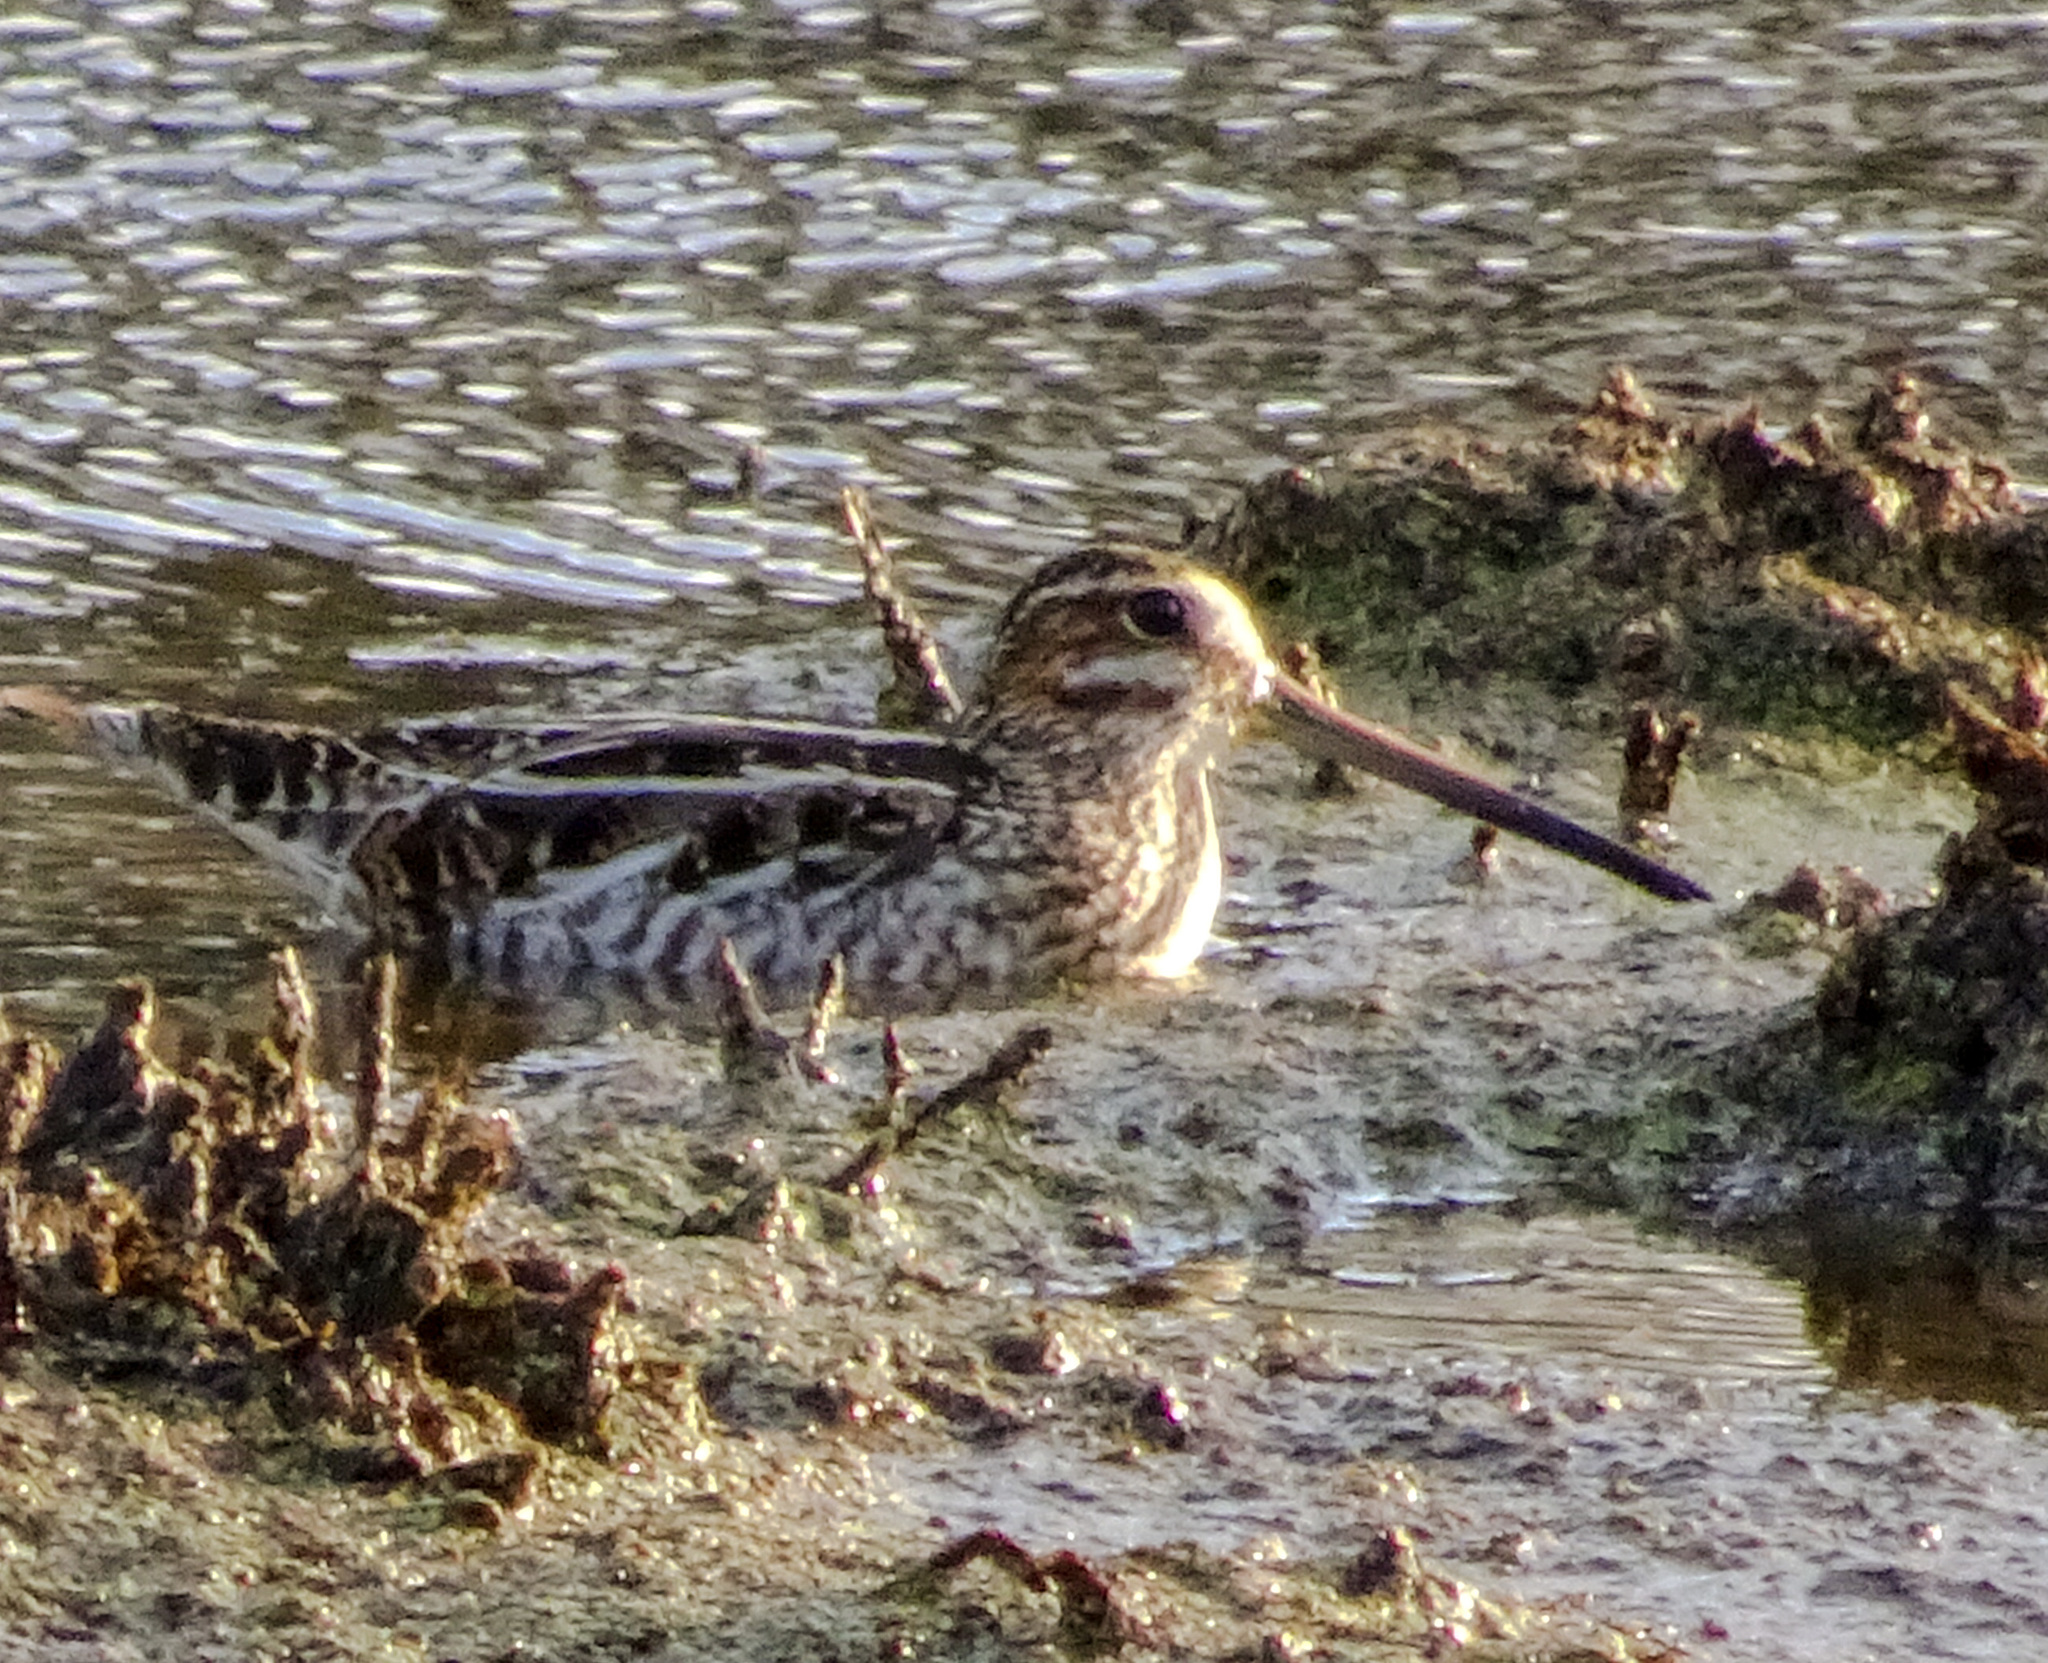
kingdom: Animalia
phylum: Chordata
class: Aves
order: Charadriiformes
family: Scolopacidae
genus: Gallinago
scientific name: Gallinago delicata
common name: Wilson's snipe
